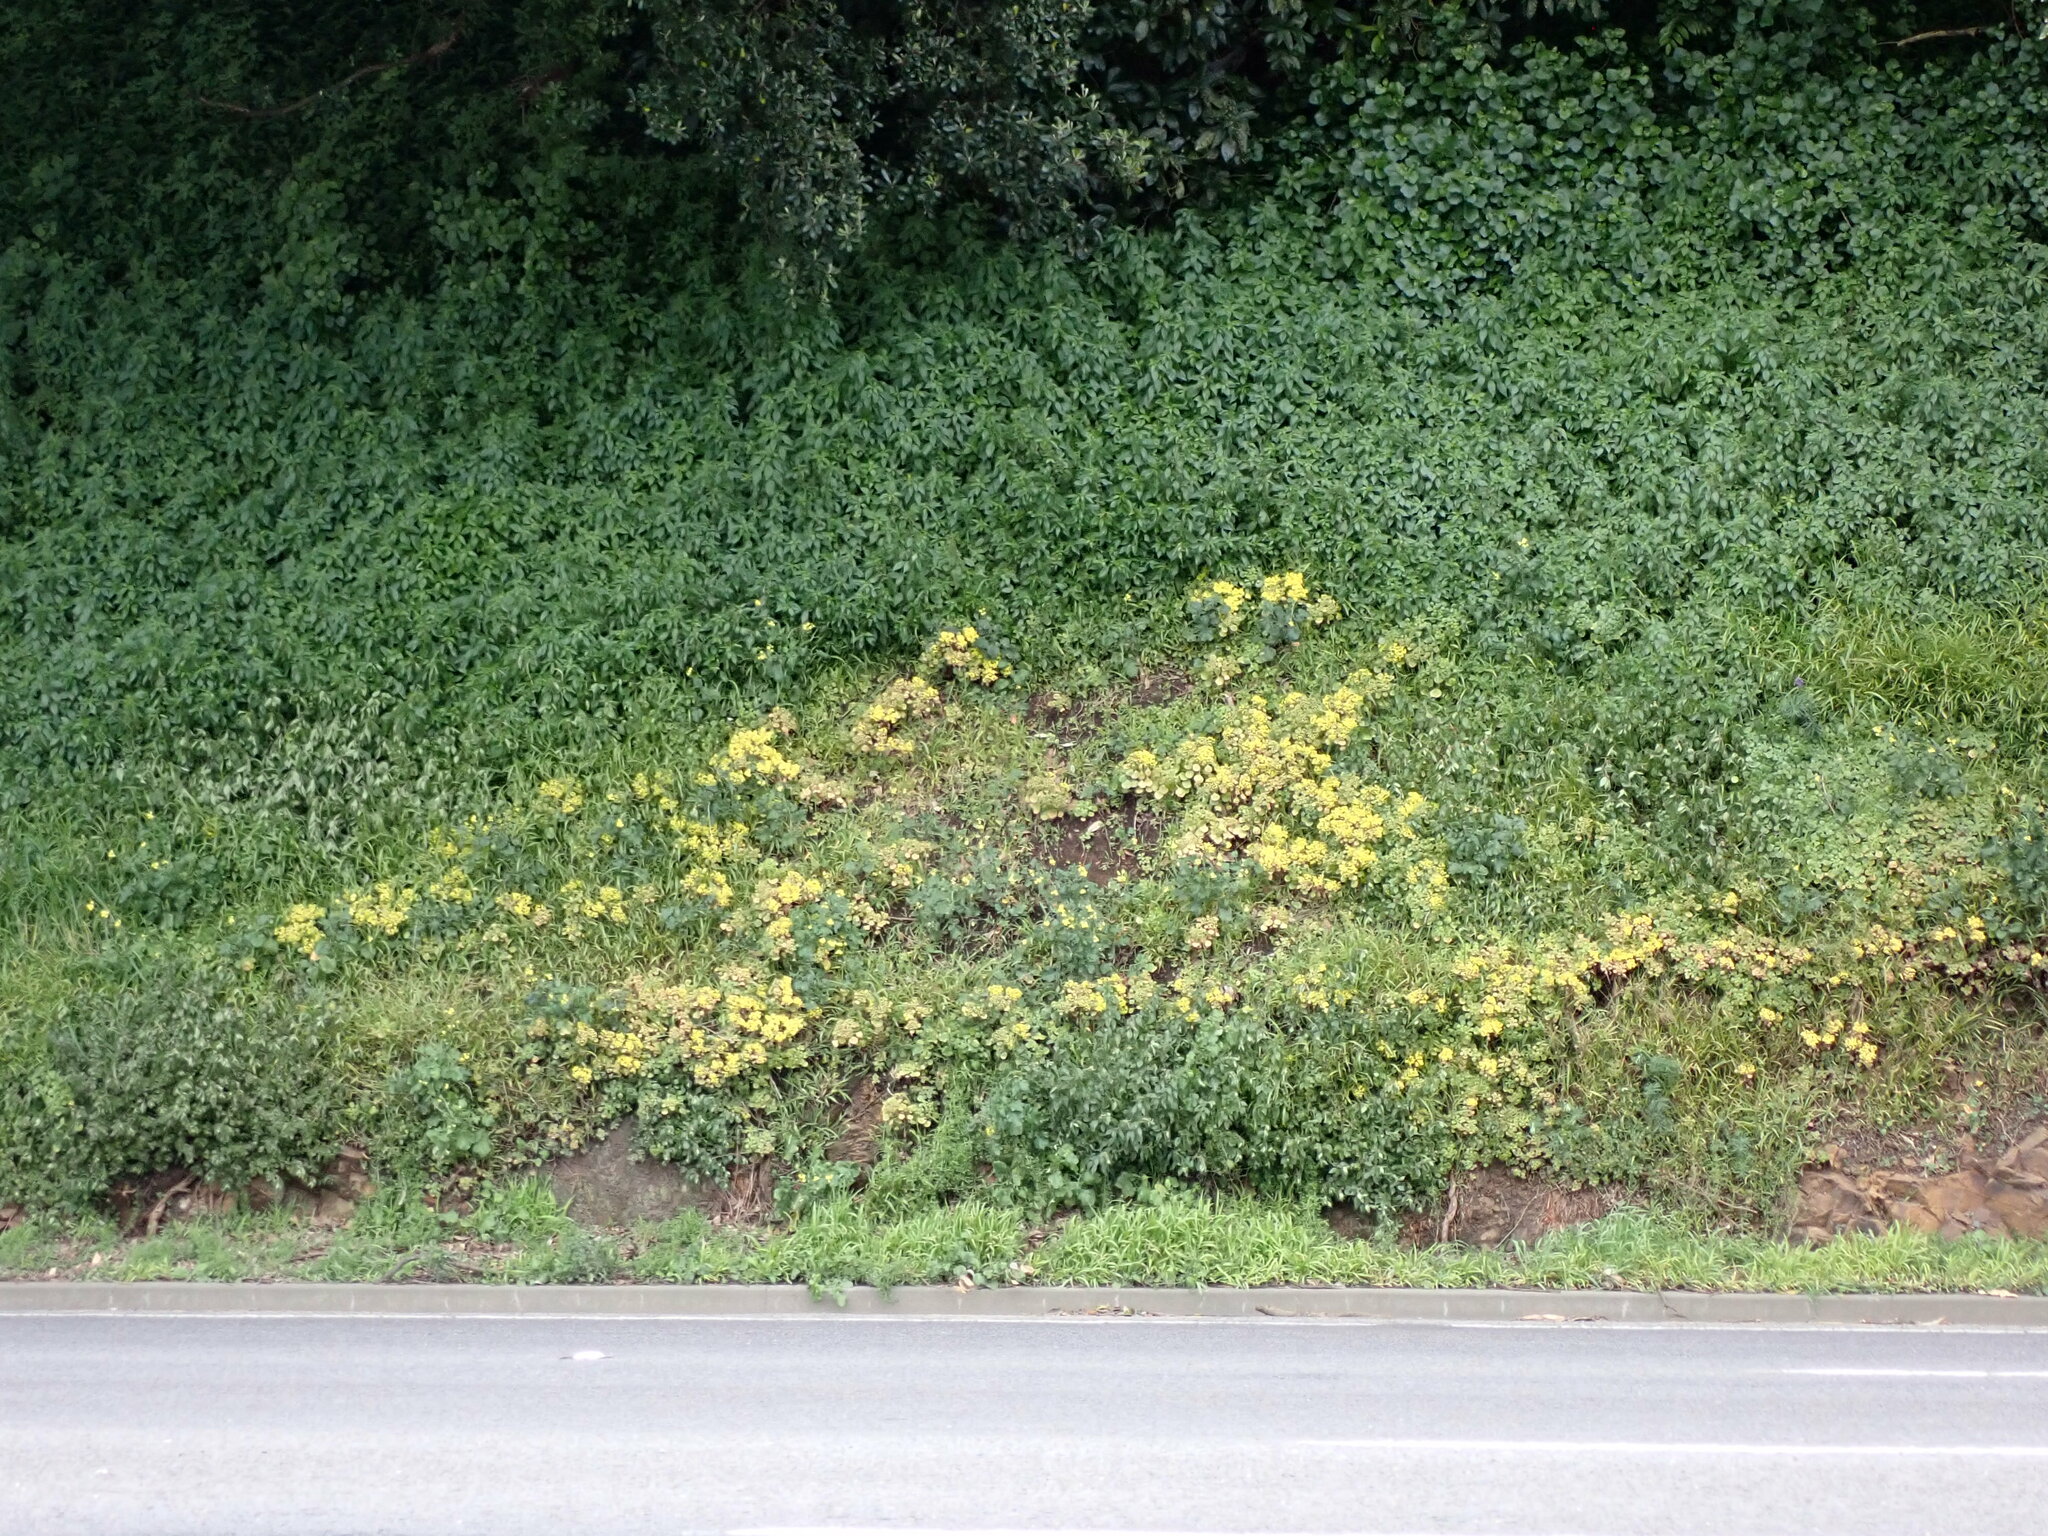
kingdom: Plantae
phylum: Tracheophyta
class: Magnoliopsida
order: Saxifragales
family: Crassulaceae
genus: Aichryson
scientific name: Aichryson laxum
